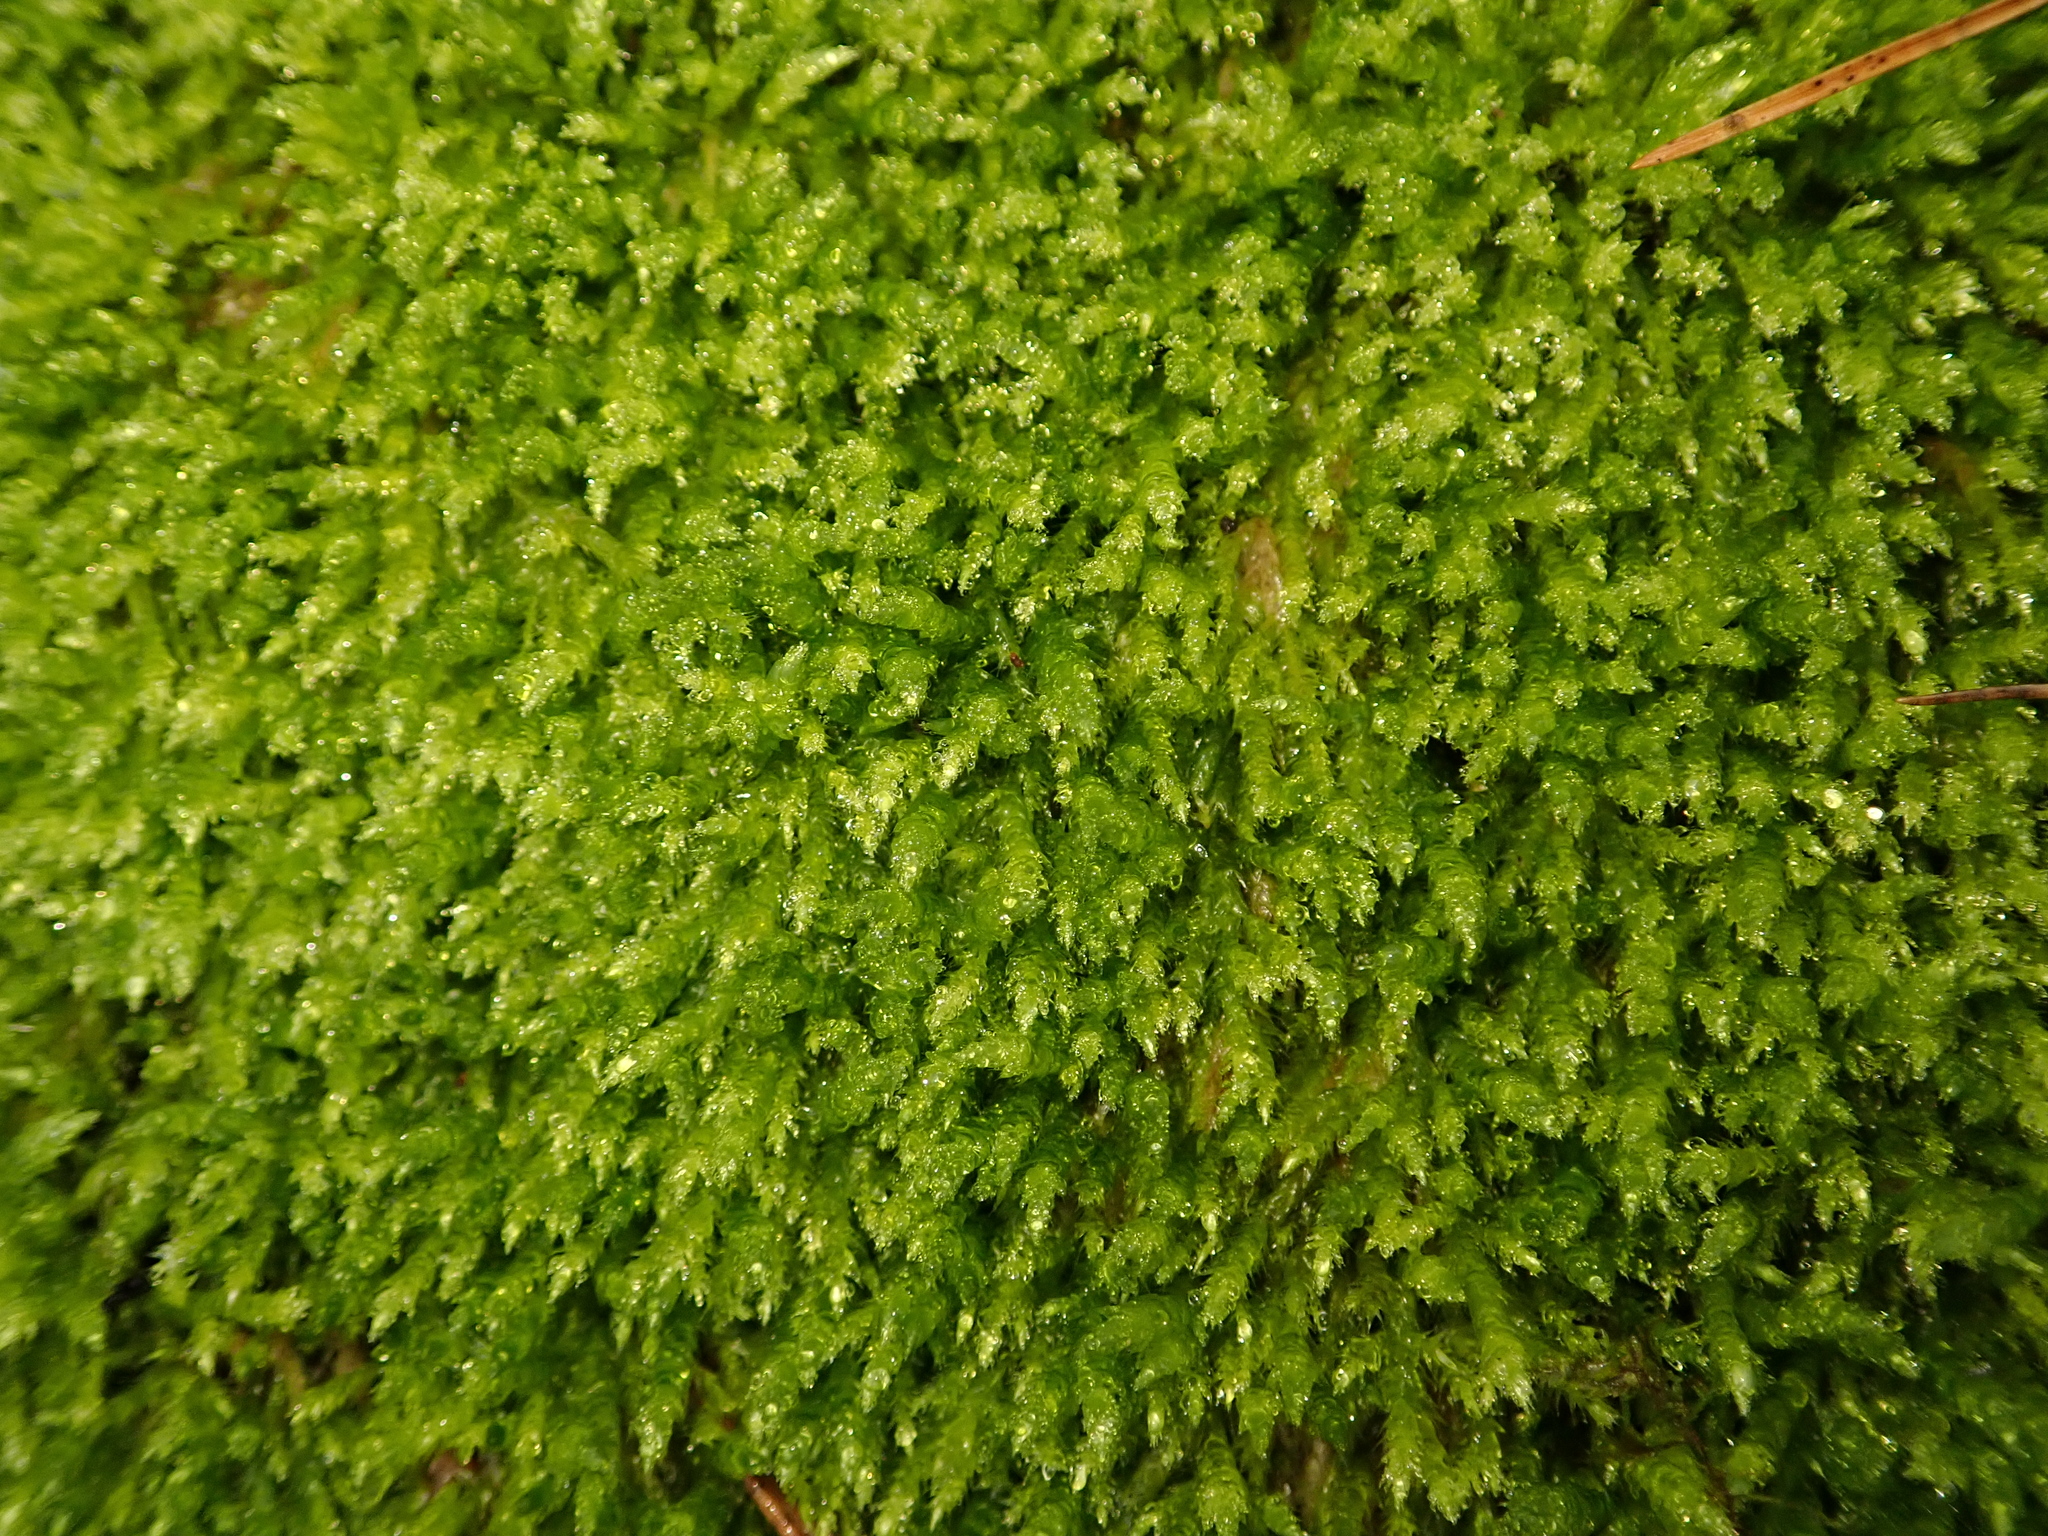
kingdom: Plantae
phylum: Bryophyta
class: Bryopsida
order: Hypnales
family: Hypnaceae
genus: Hypnum
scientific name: Hypnum cupressiforme
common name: Cypress-leaved plait-moss
